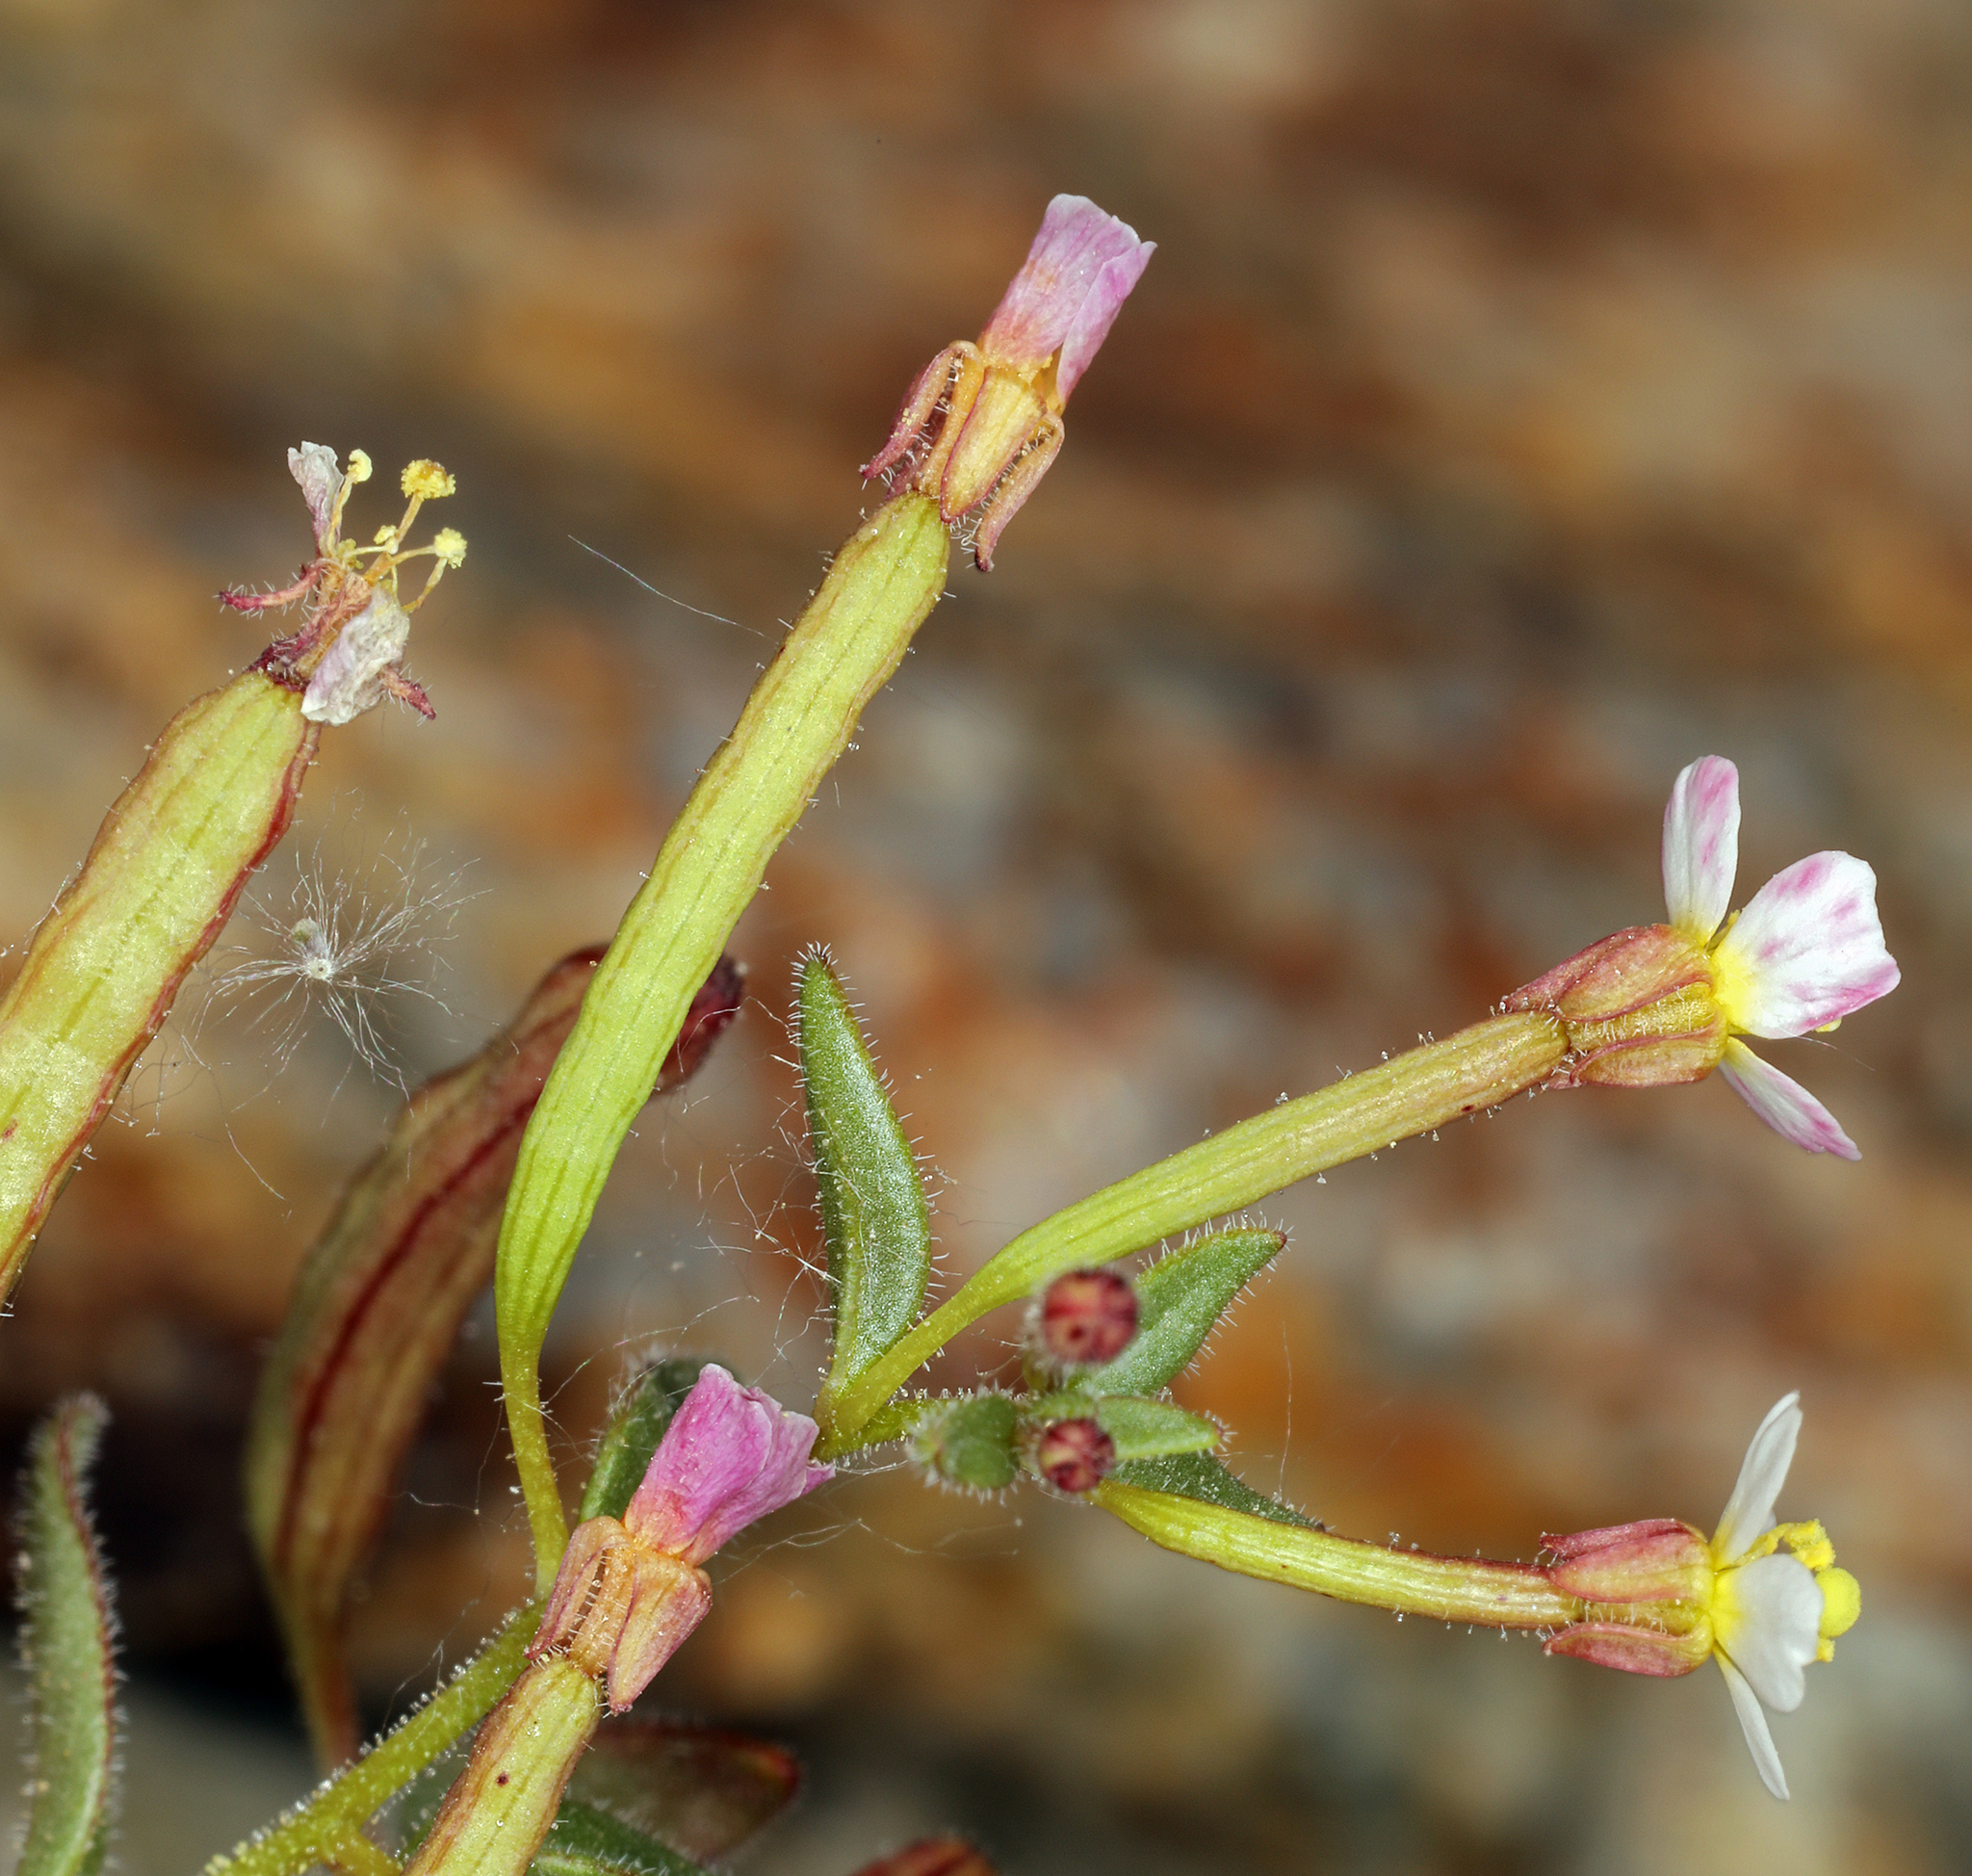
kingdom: Plantae
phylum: Tracheophyta
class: Magnoliopsida
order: Myrtales
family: Onagraceae
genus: Chylismiella
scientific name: Chylismiella pterosperma
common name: Wingfruit suncup
